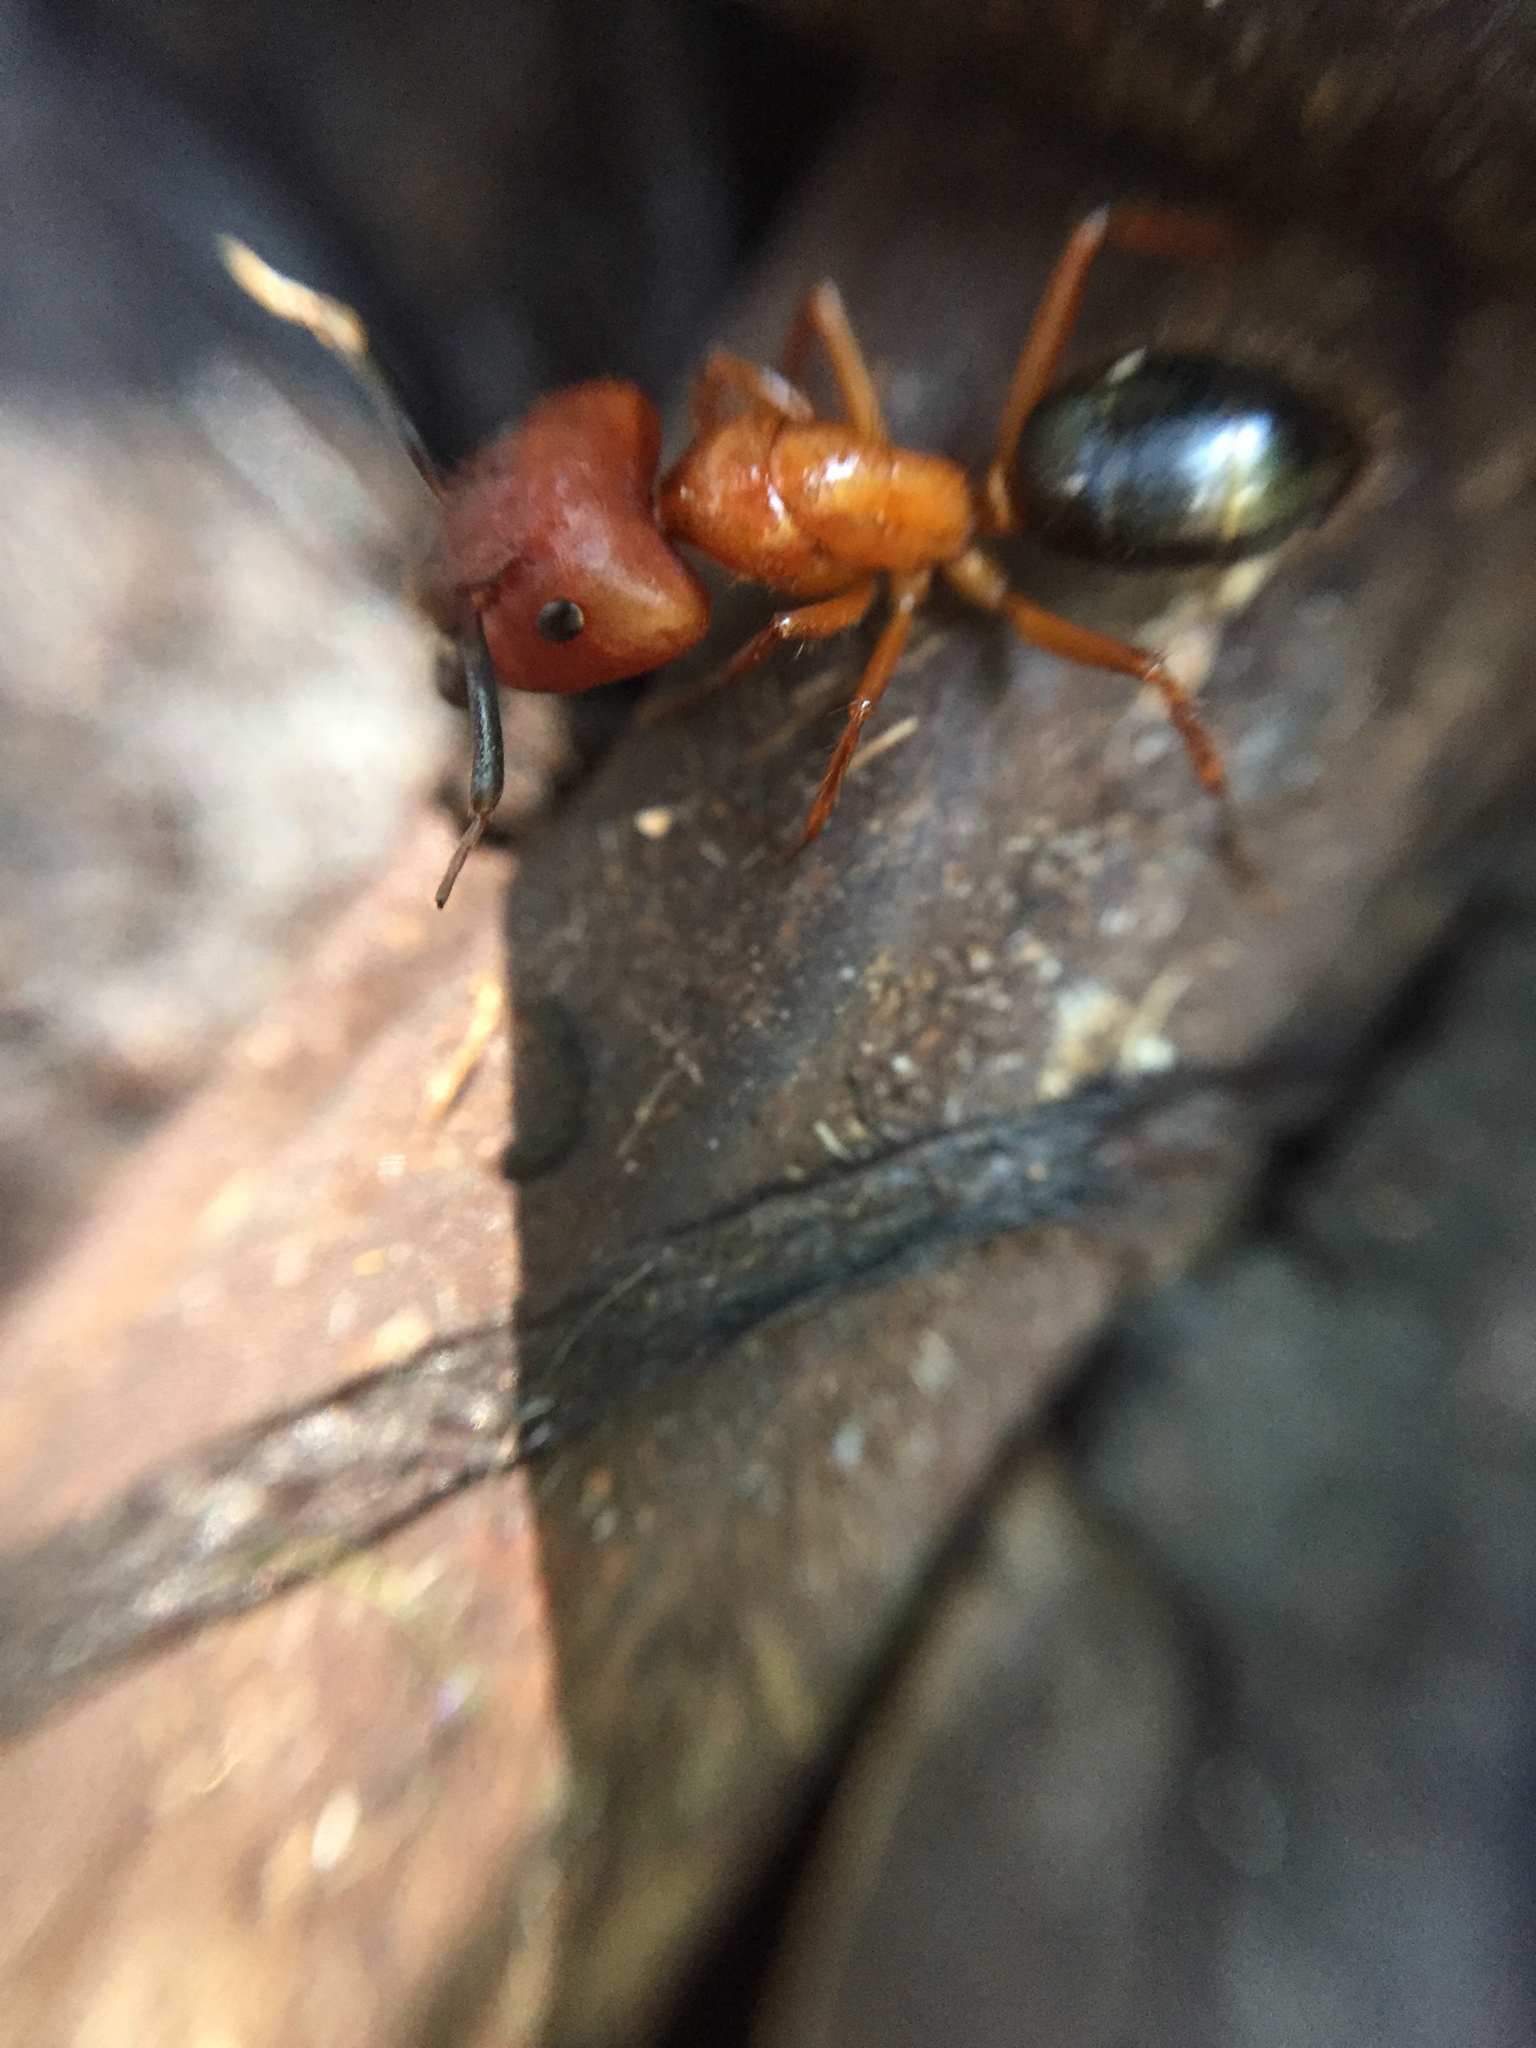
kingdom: Animalia
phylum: Arthropoda
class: Insecta
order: Hymenoptera
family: Formicidae
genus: Camponotus
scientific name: Camponotus floridanus
